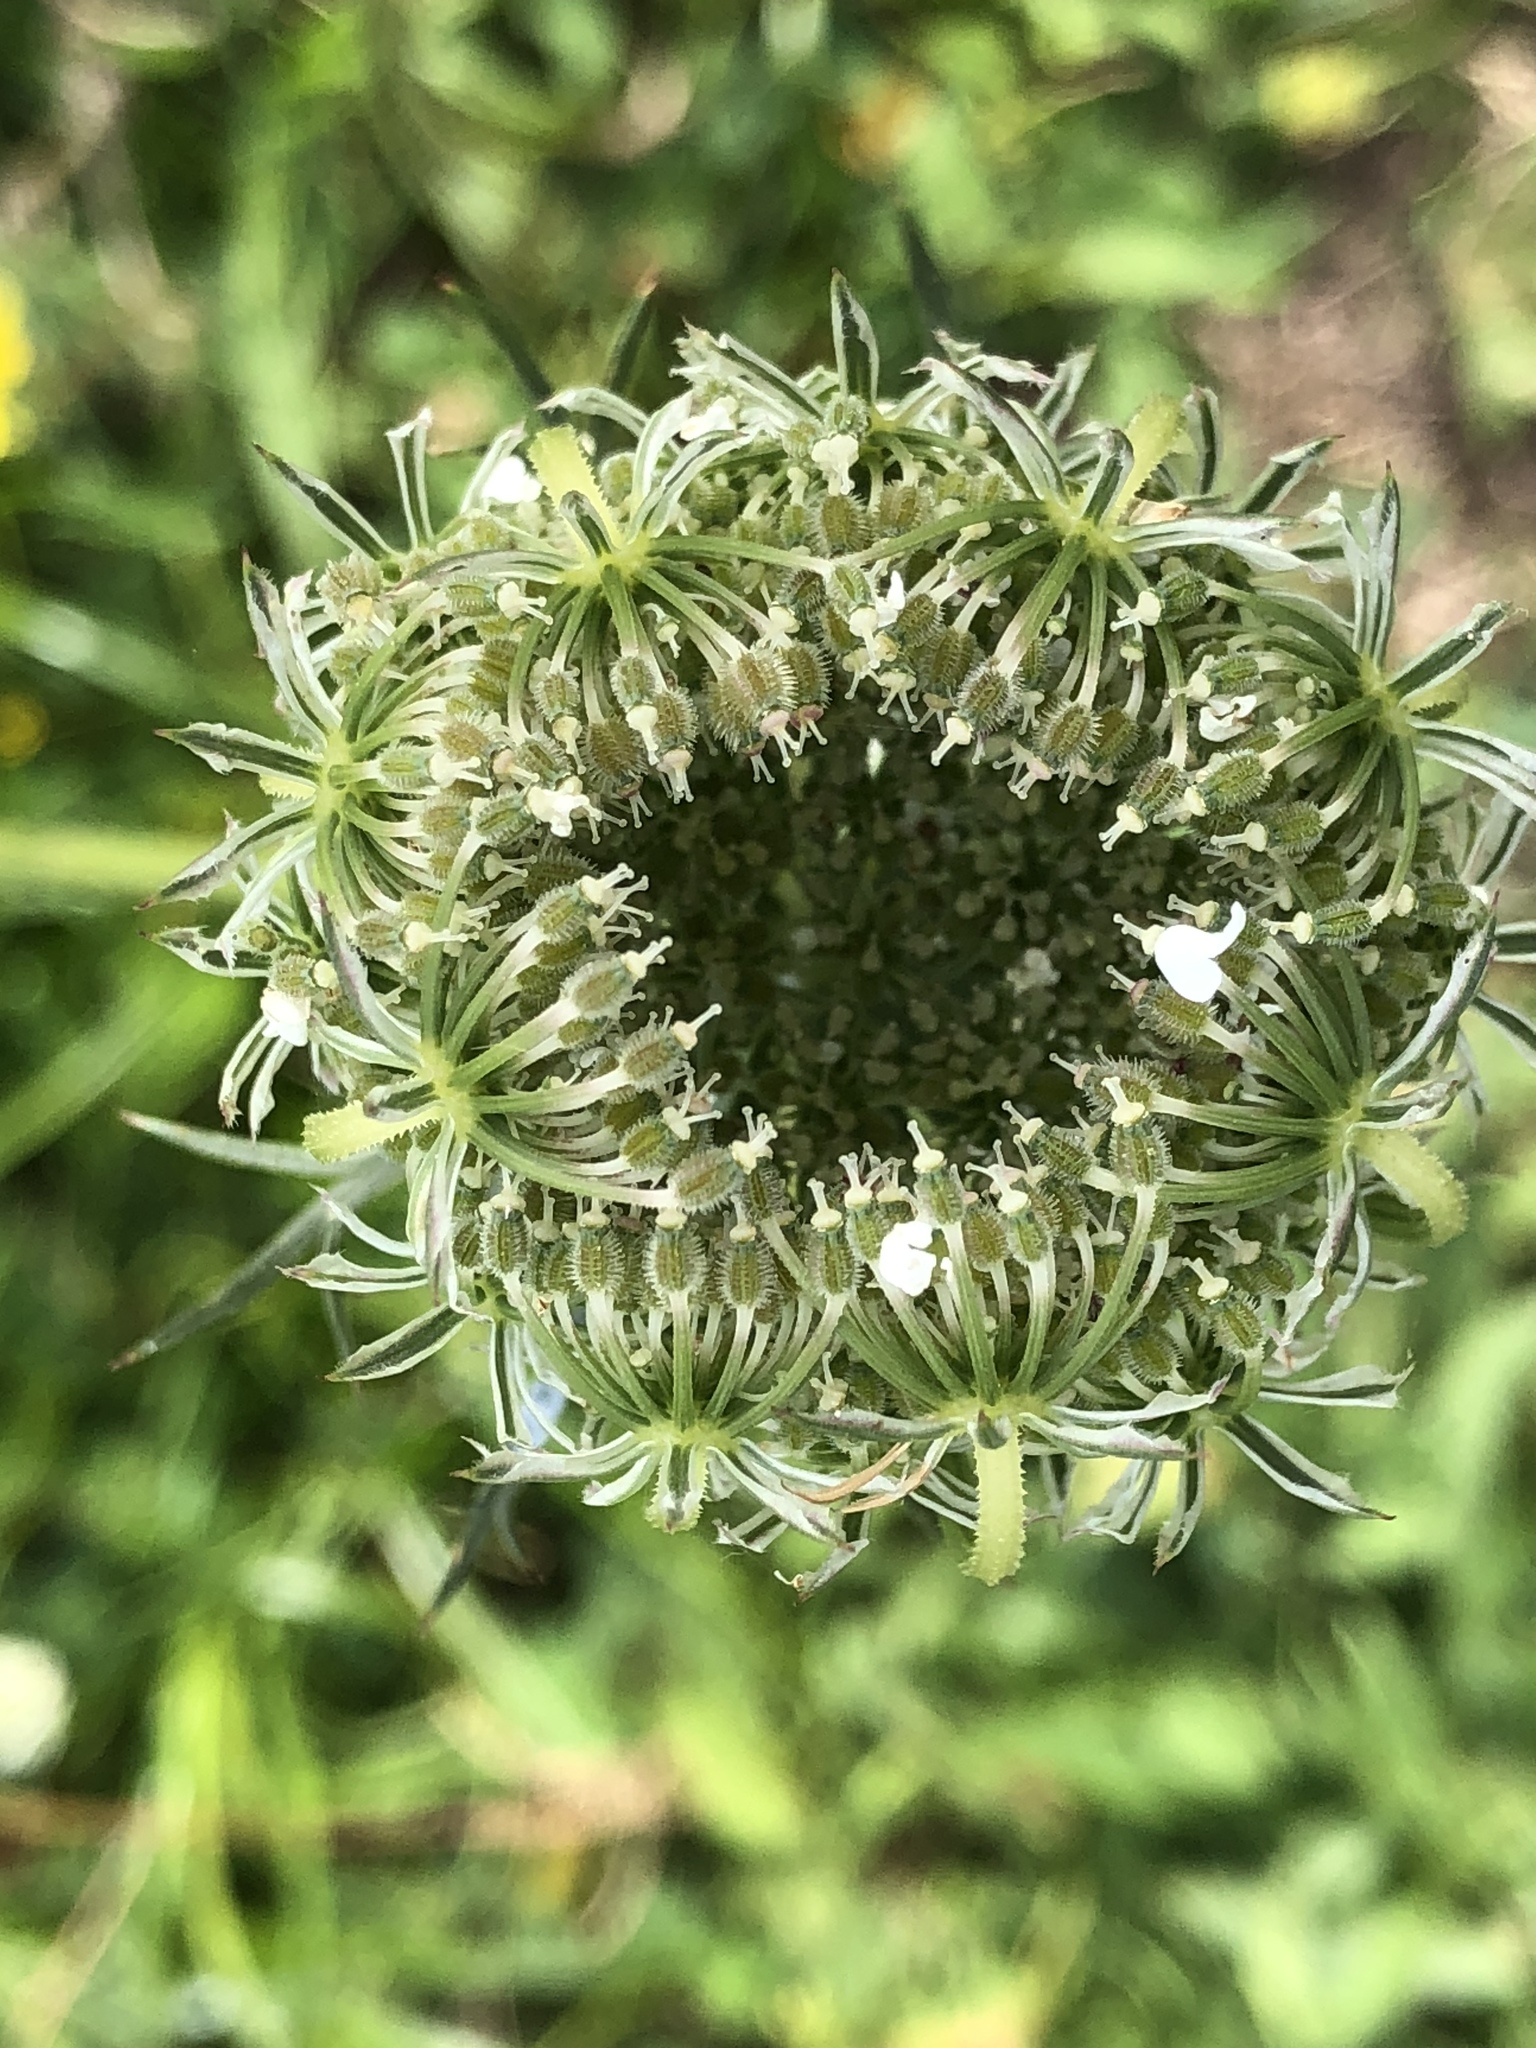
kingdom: Plantae
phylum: Tracheophyta
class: Magnoliopsida
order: Apiales
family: Apiaceae
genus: Daucus
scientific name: Daucus carota
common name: Wild carrot
